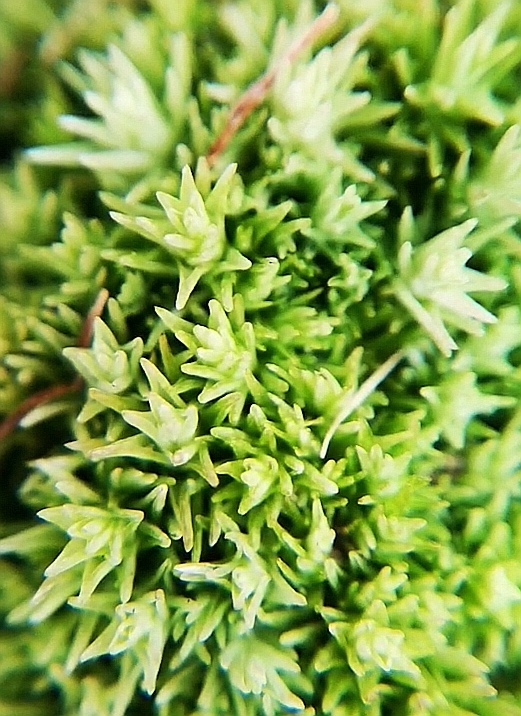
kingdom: Plantae
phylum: Bryophyta
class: Bryopsida
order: Dicranales
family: Leucobryaceae
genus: Leucobryum
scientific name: Leucobryum glaucum
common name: Large white-moss
